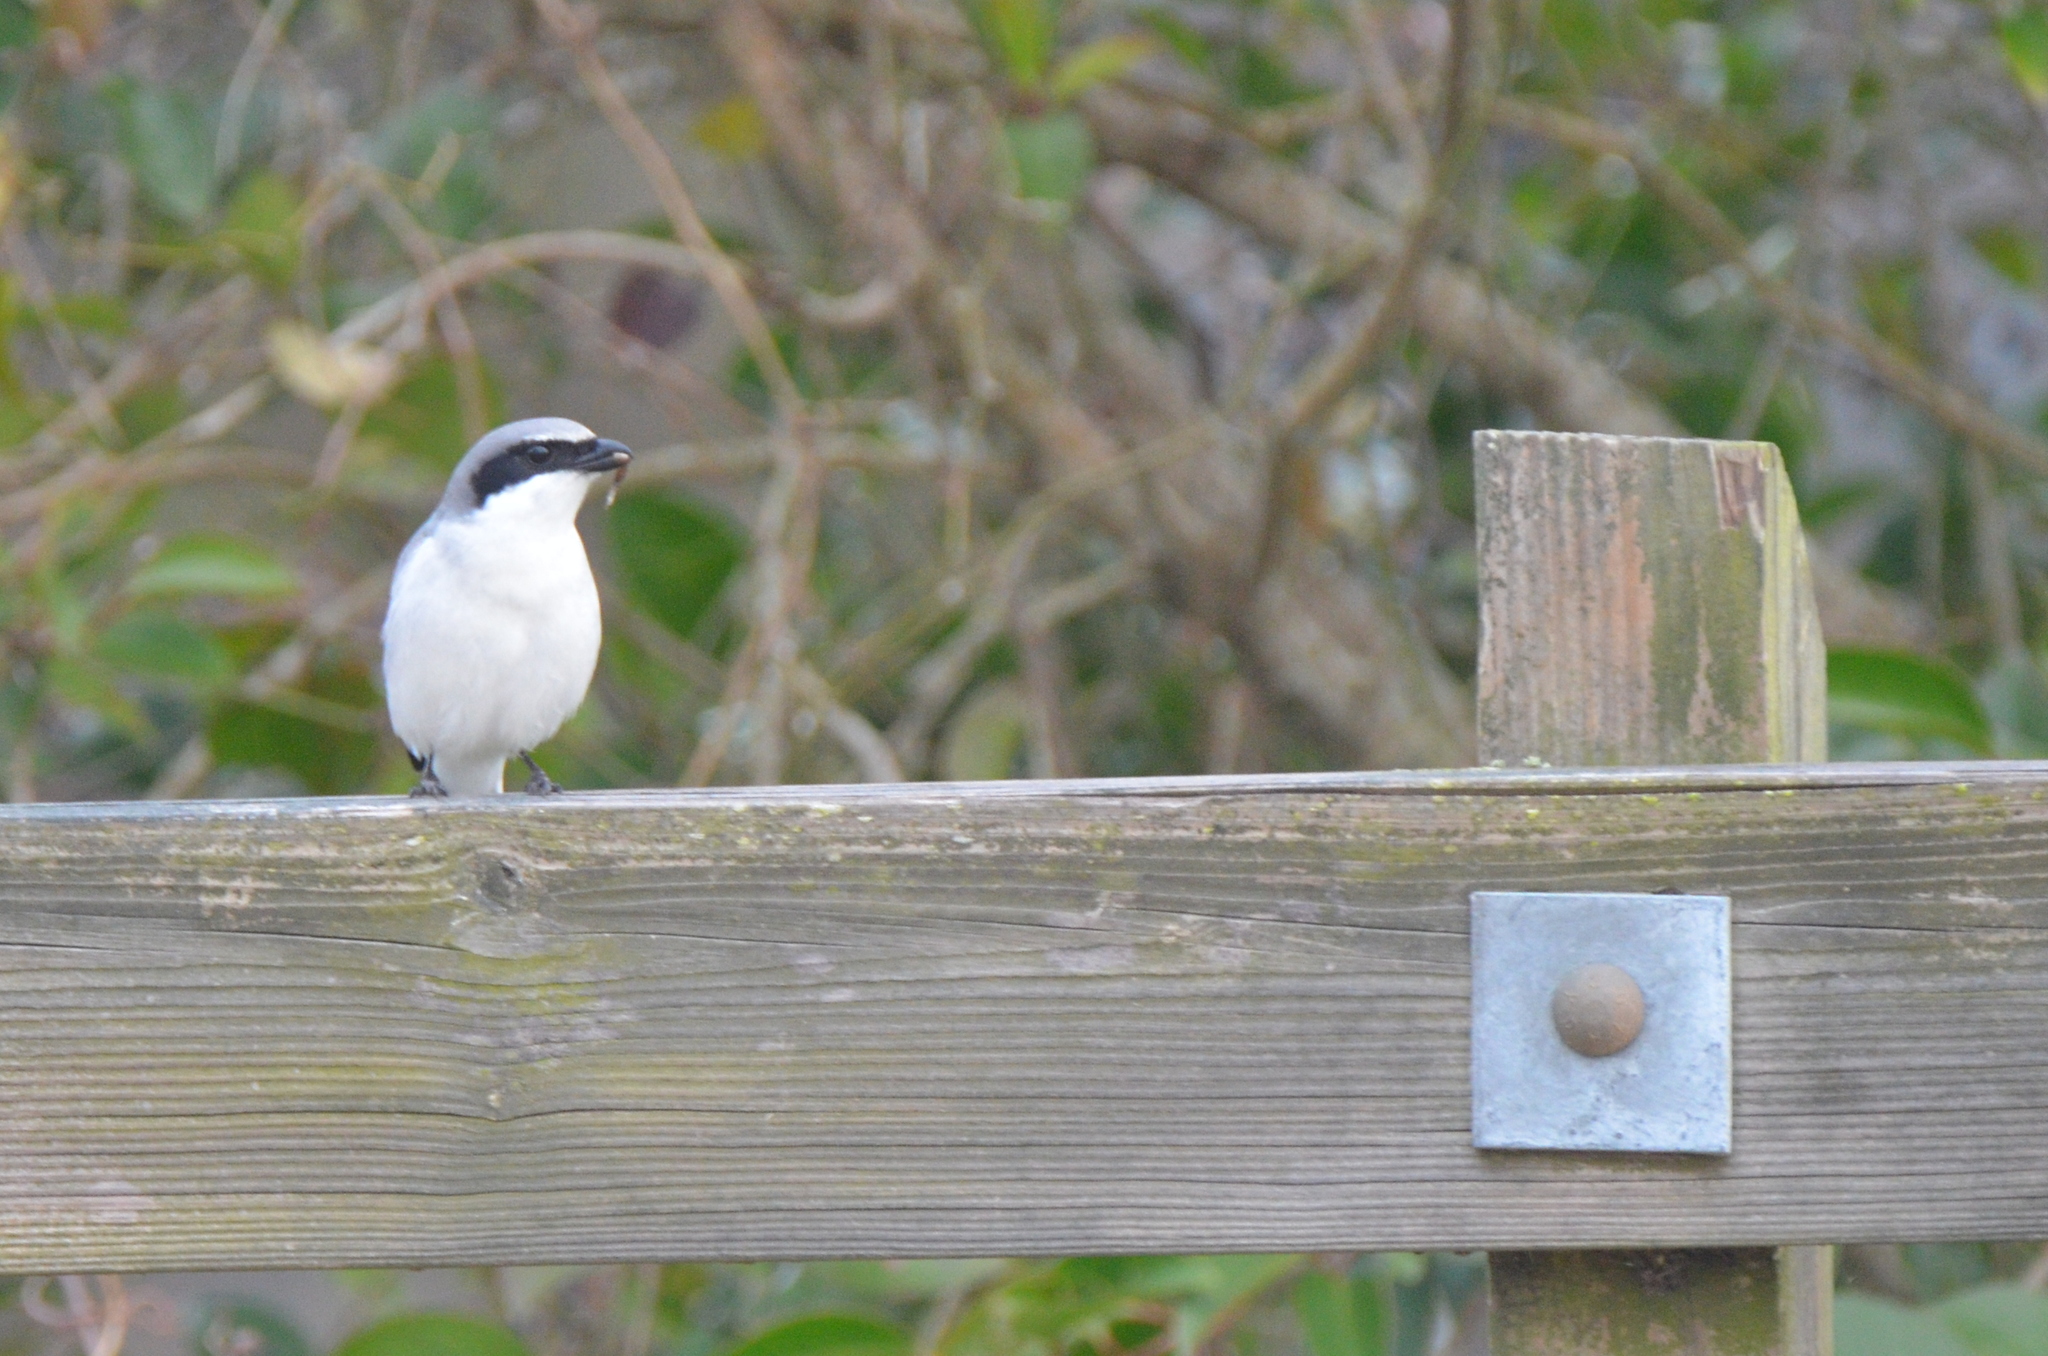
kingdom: Animalia
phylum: Chordata
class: Aves
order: Passeriformes
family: Laniidae
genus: Lanius
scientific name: Lanius ludovicianus
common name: Loggerhead shrike
